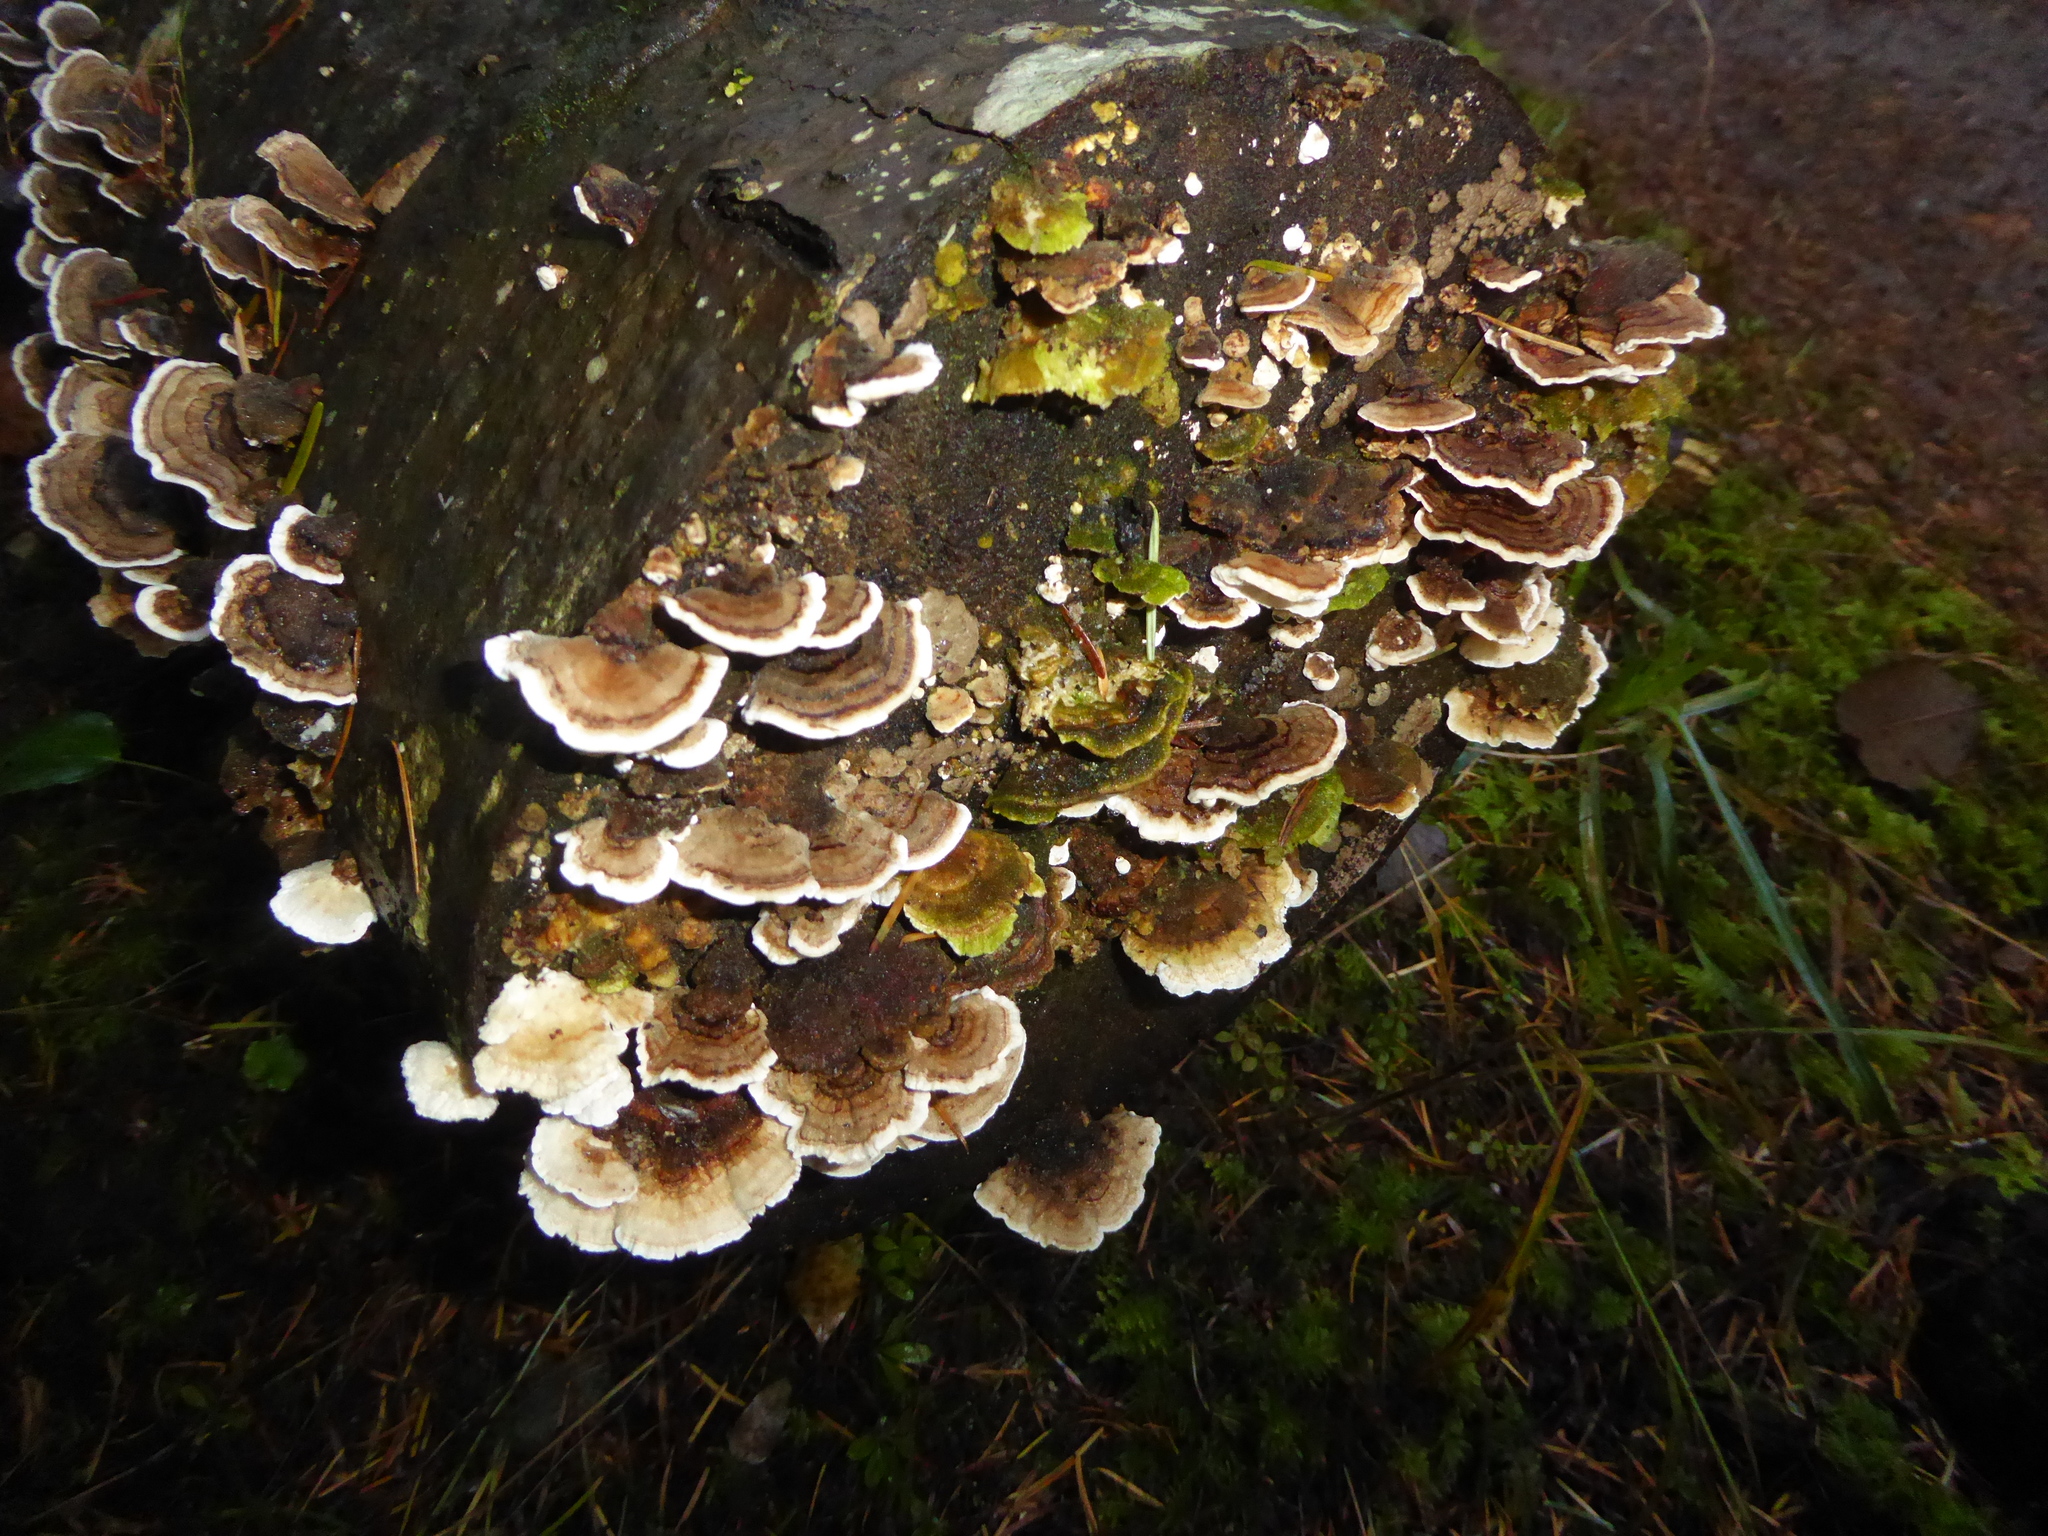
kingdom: Fungi
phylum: Basidiomycota
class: Agaricomycetes
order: Polyporales
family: Polyporaceae
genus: Trametes
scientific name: Trametes versicolor
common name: Turkeytail
